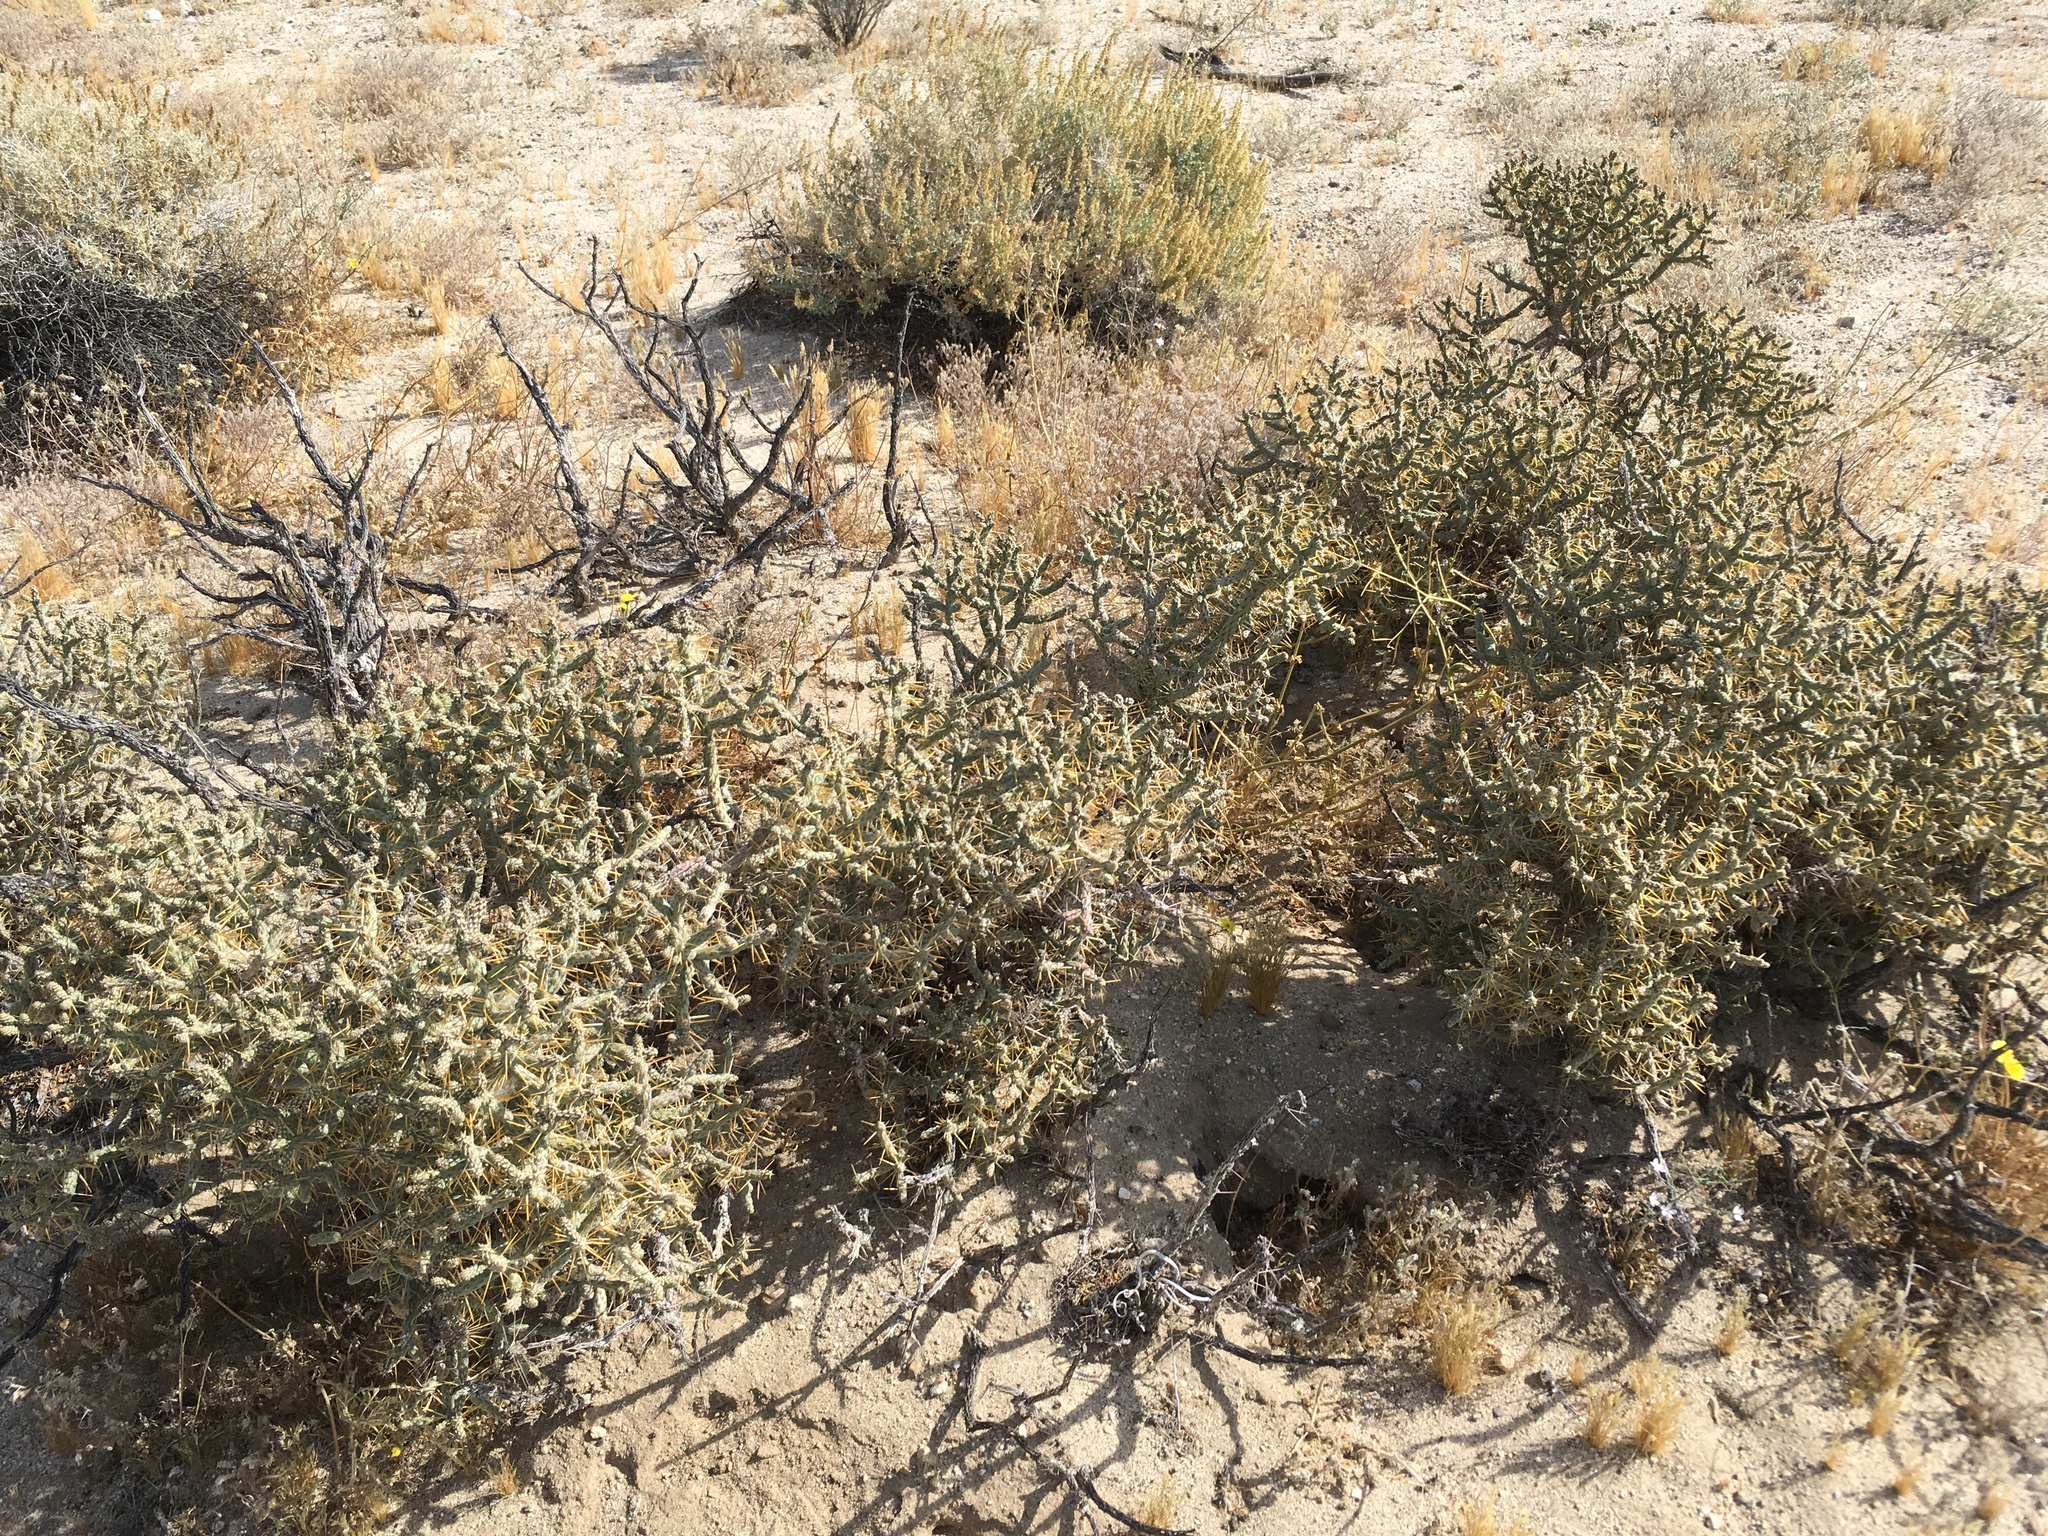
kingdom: Plantae
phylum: Tracheophyta
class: Magnoliopsida
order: Caryophyllales
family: Cactaceae
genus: Cylindropuntia
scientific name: Cylindropuntia ramosissima
